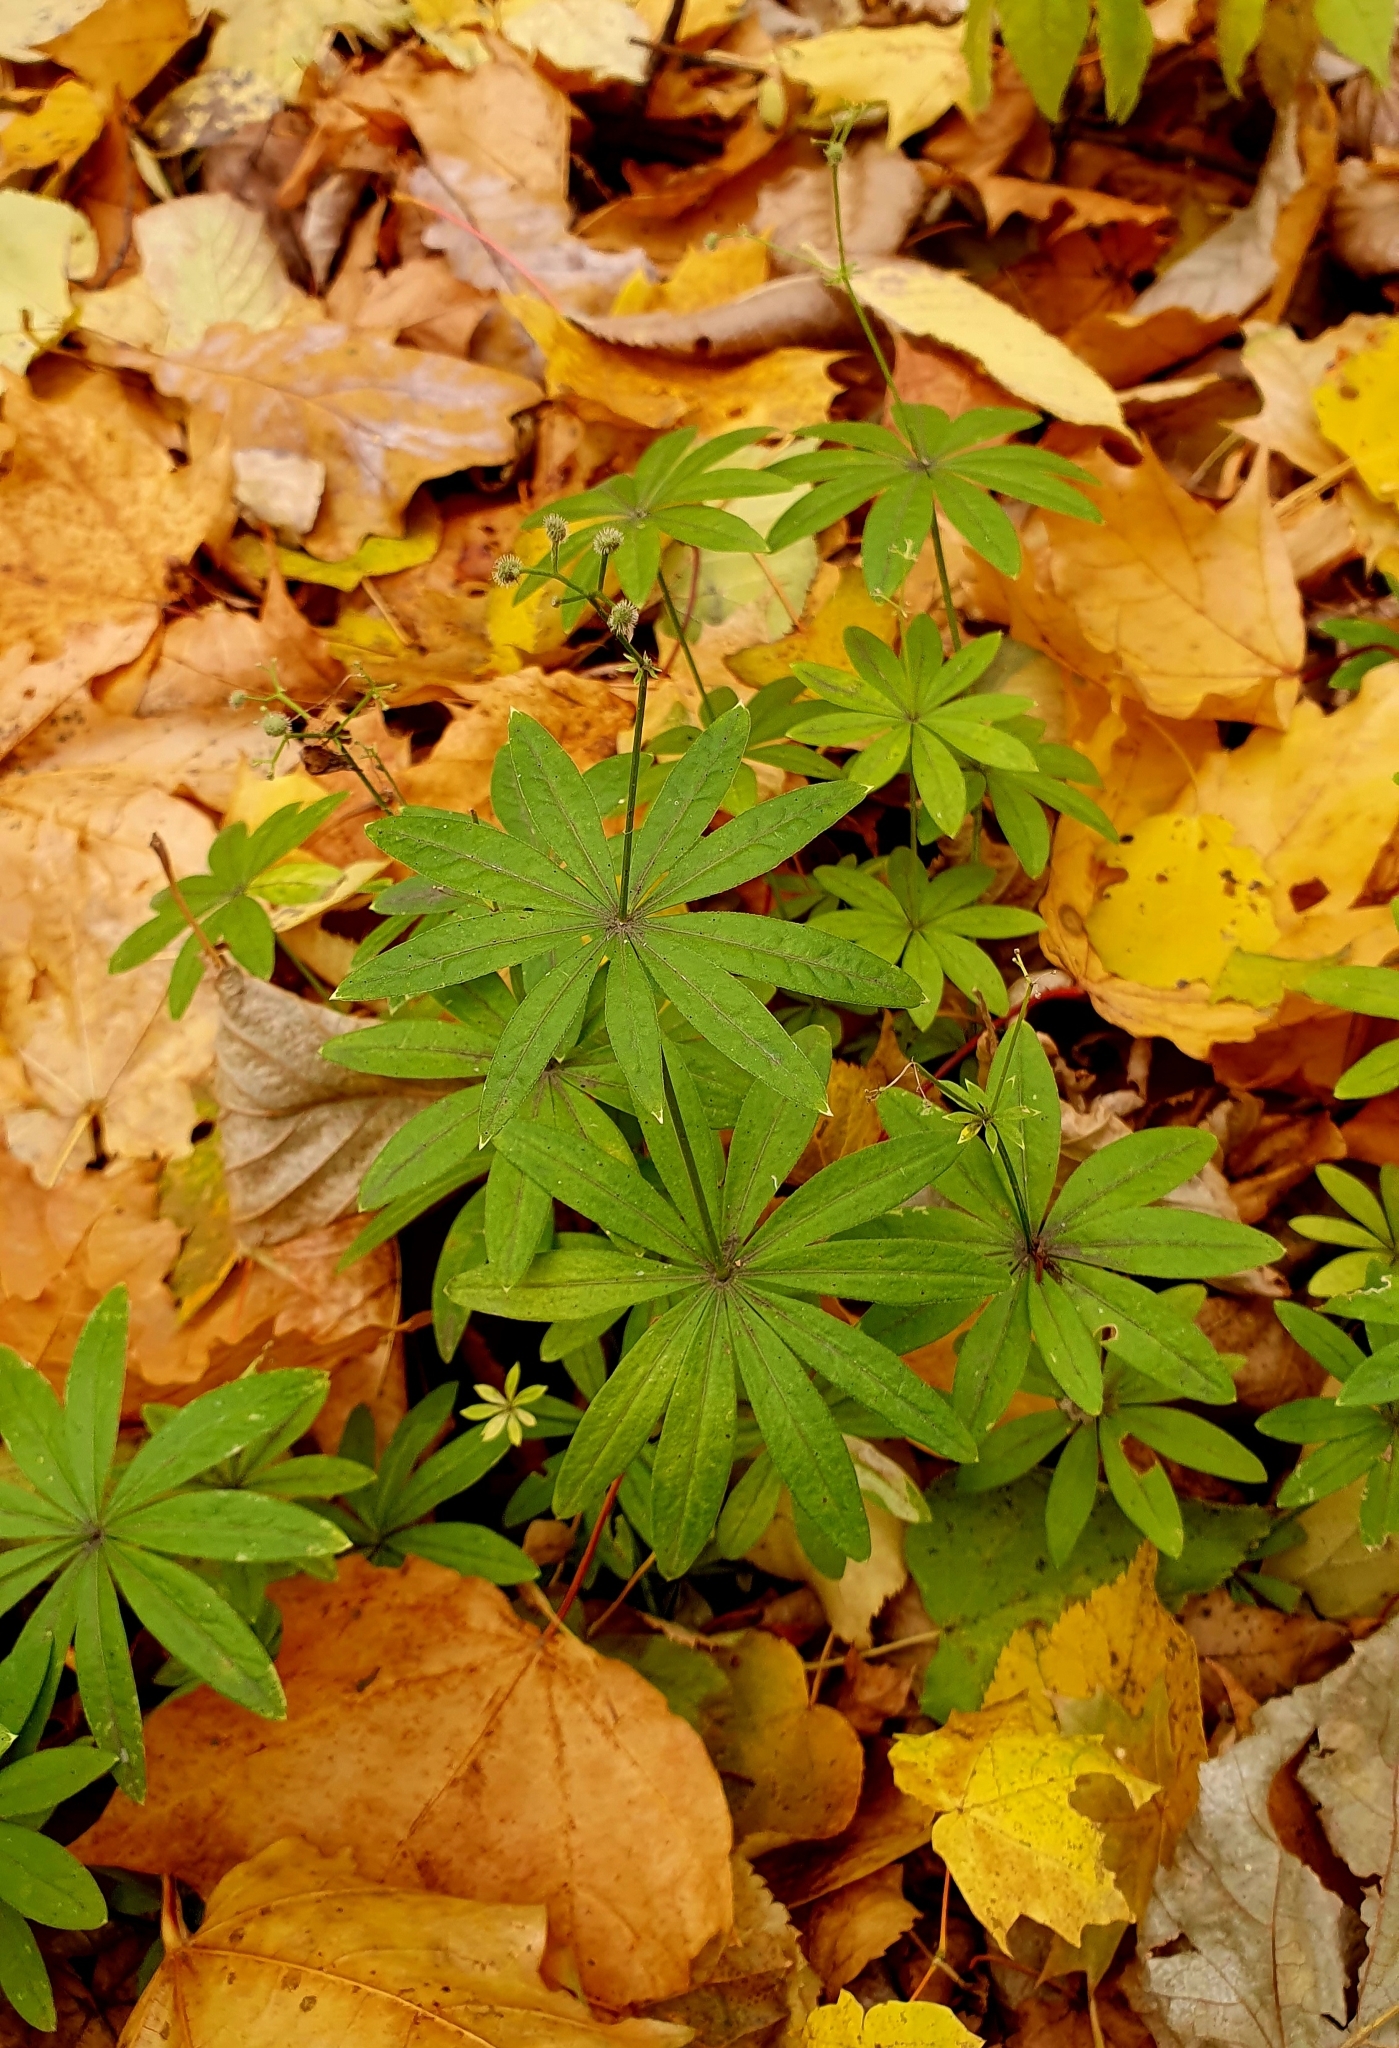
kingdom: Plantae
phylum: Tracheophyta
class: Magnoliopsida
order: Gentianales
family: Rubiaceae
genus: Galium
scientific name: Galium odoratum
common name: Sweet woodruff
